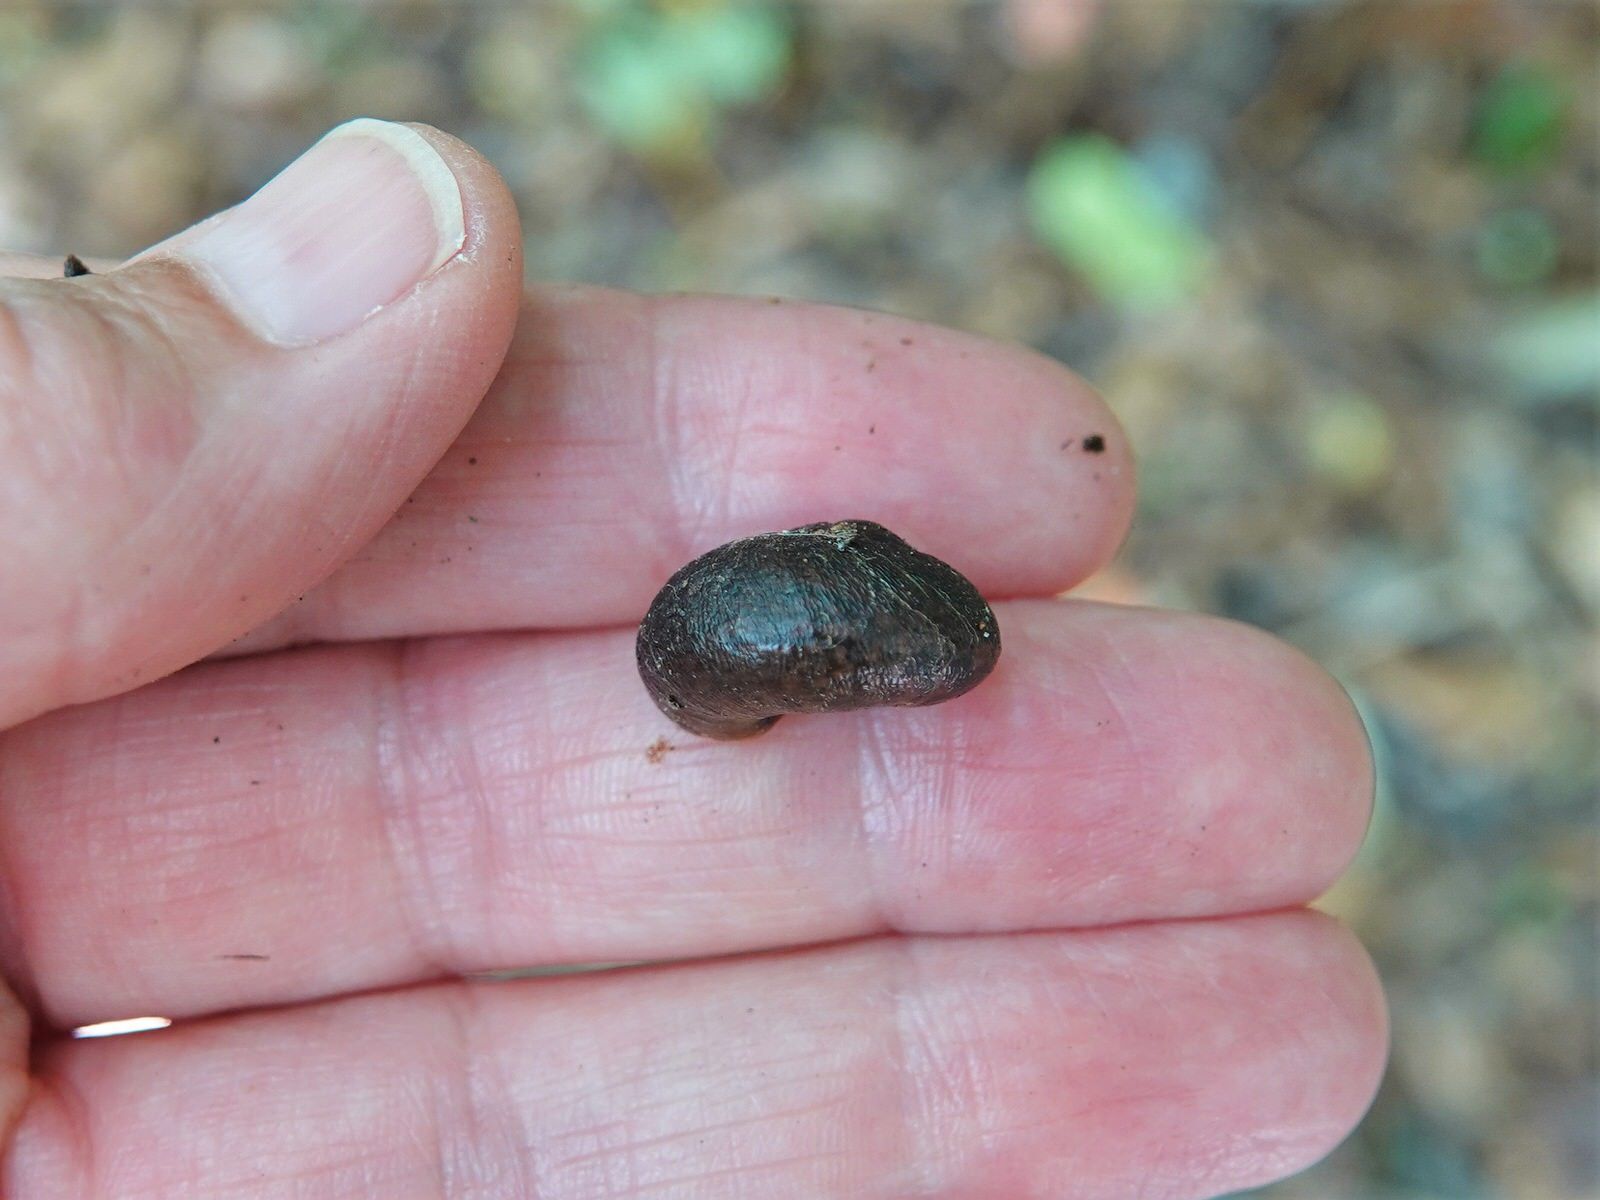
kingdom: Animalia
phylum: Mollusca
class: Gastropoda
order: Stylommatophora
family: Rhytididae
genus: Rhytida
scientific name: Rhytida greenwoodi
